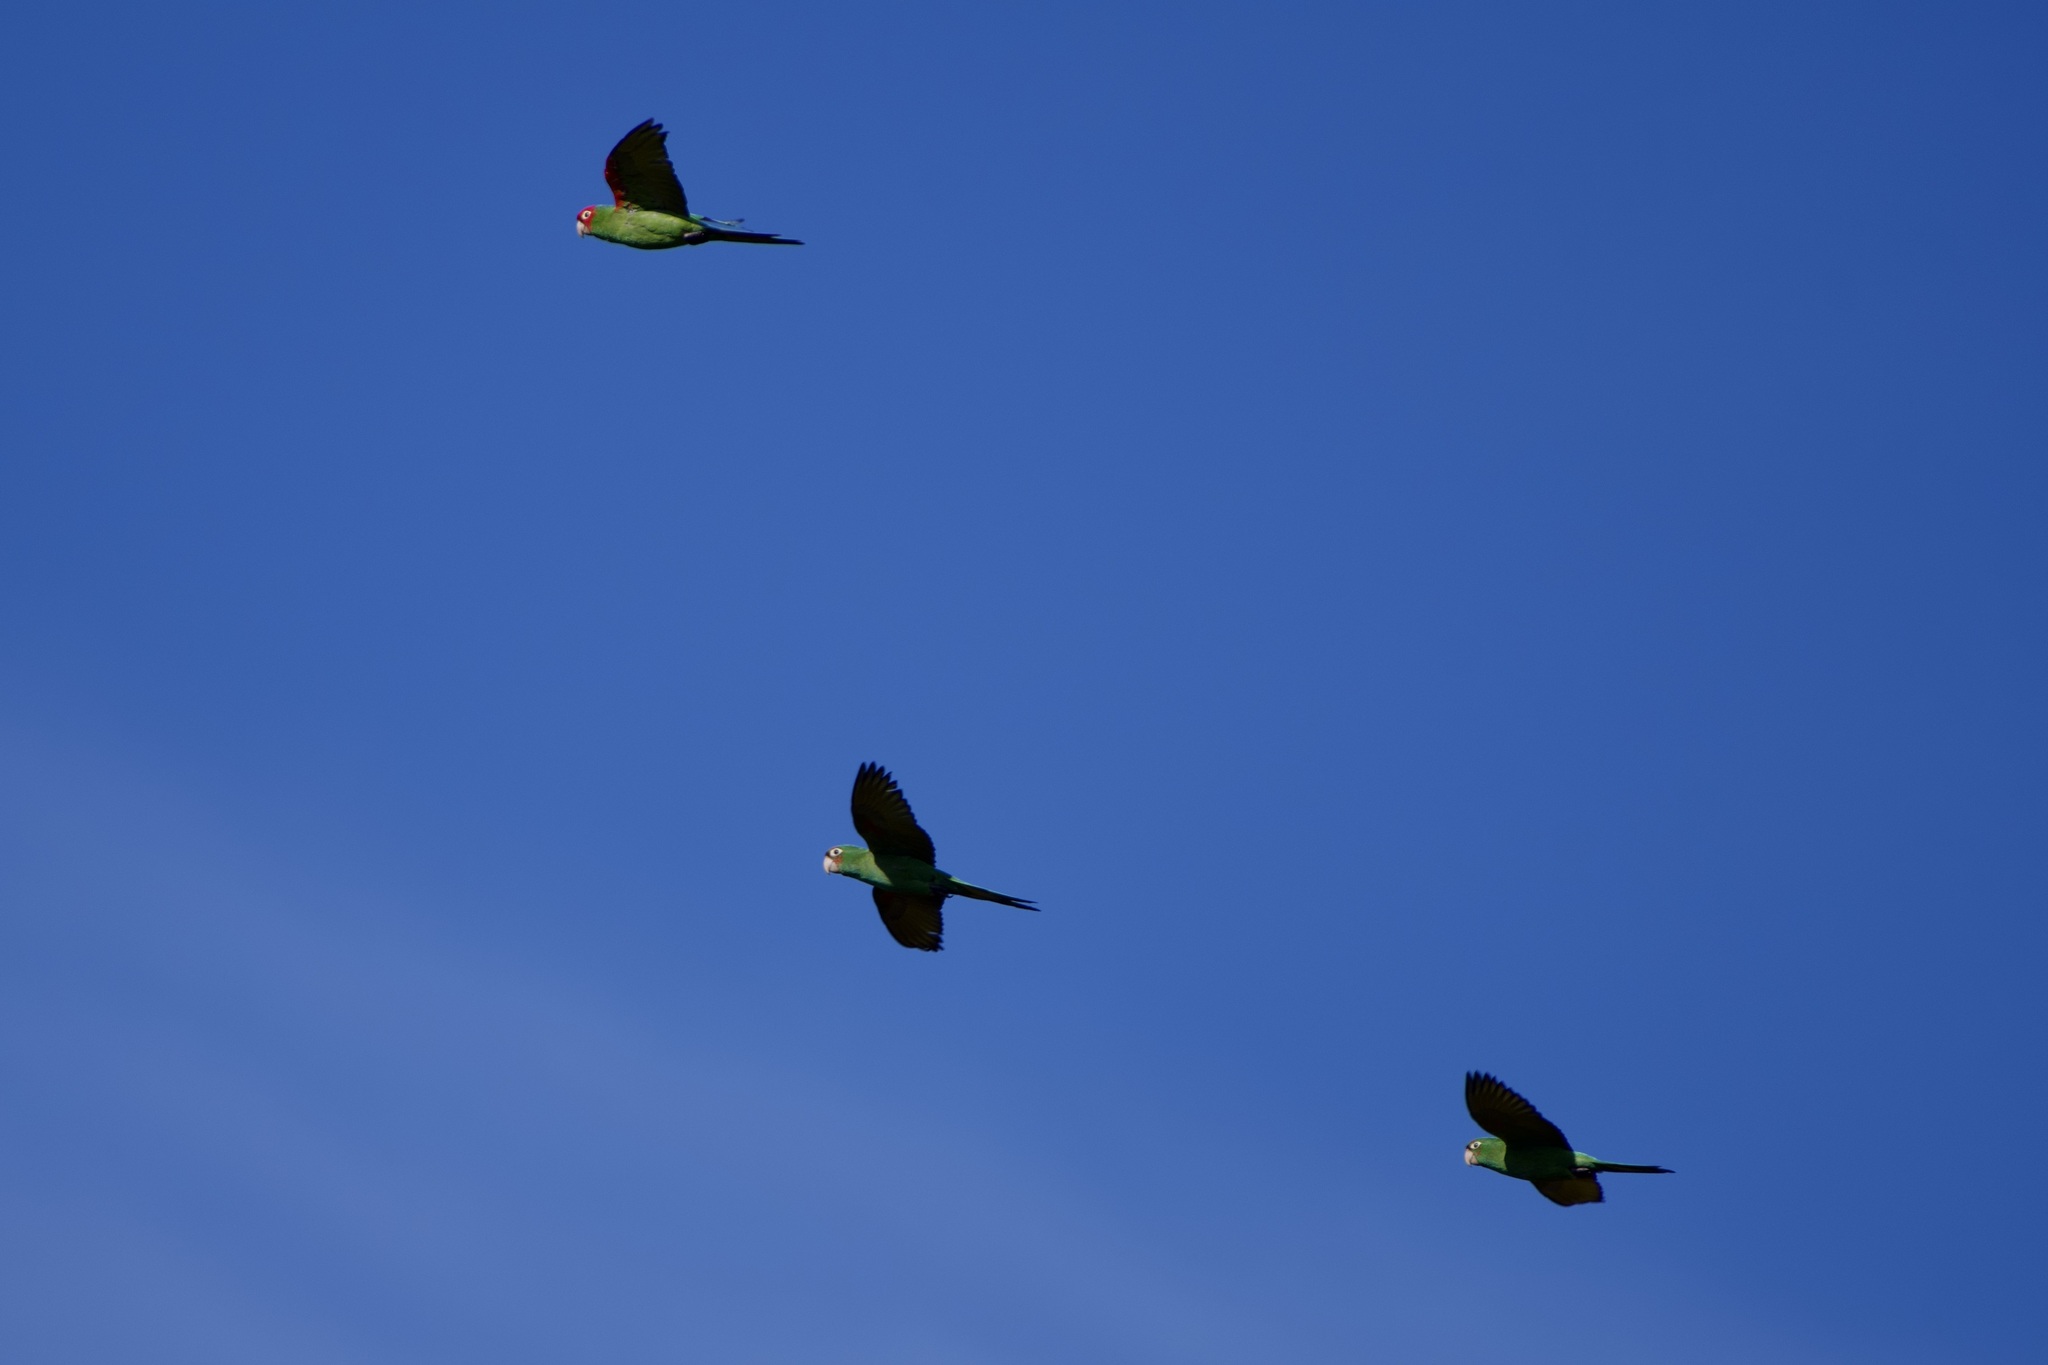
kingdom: Animalia
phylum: Chordata
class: Aves
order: Psittaciformes
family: Psittacidae
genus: Aratinga
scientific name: Aratinga erythrogenys
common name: Red-masked parakeet
